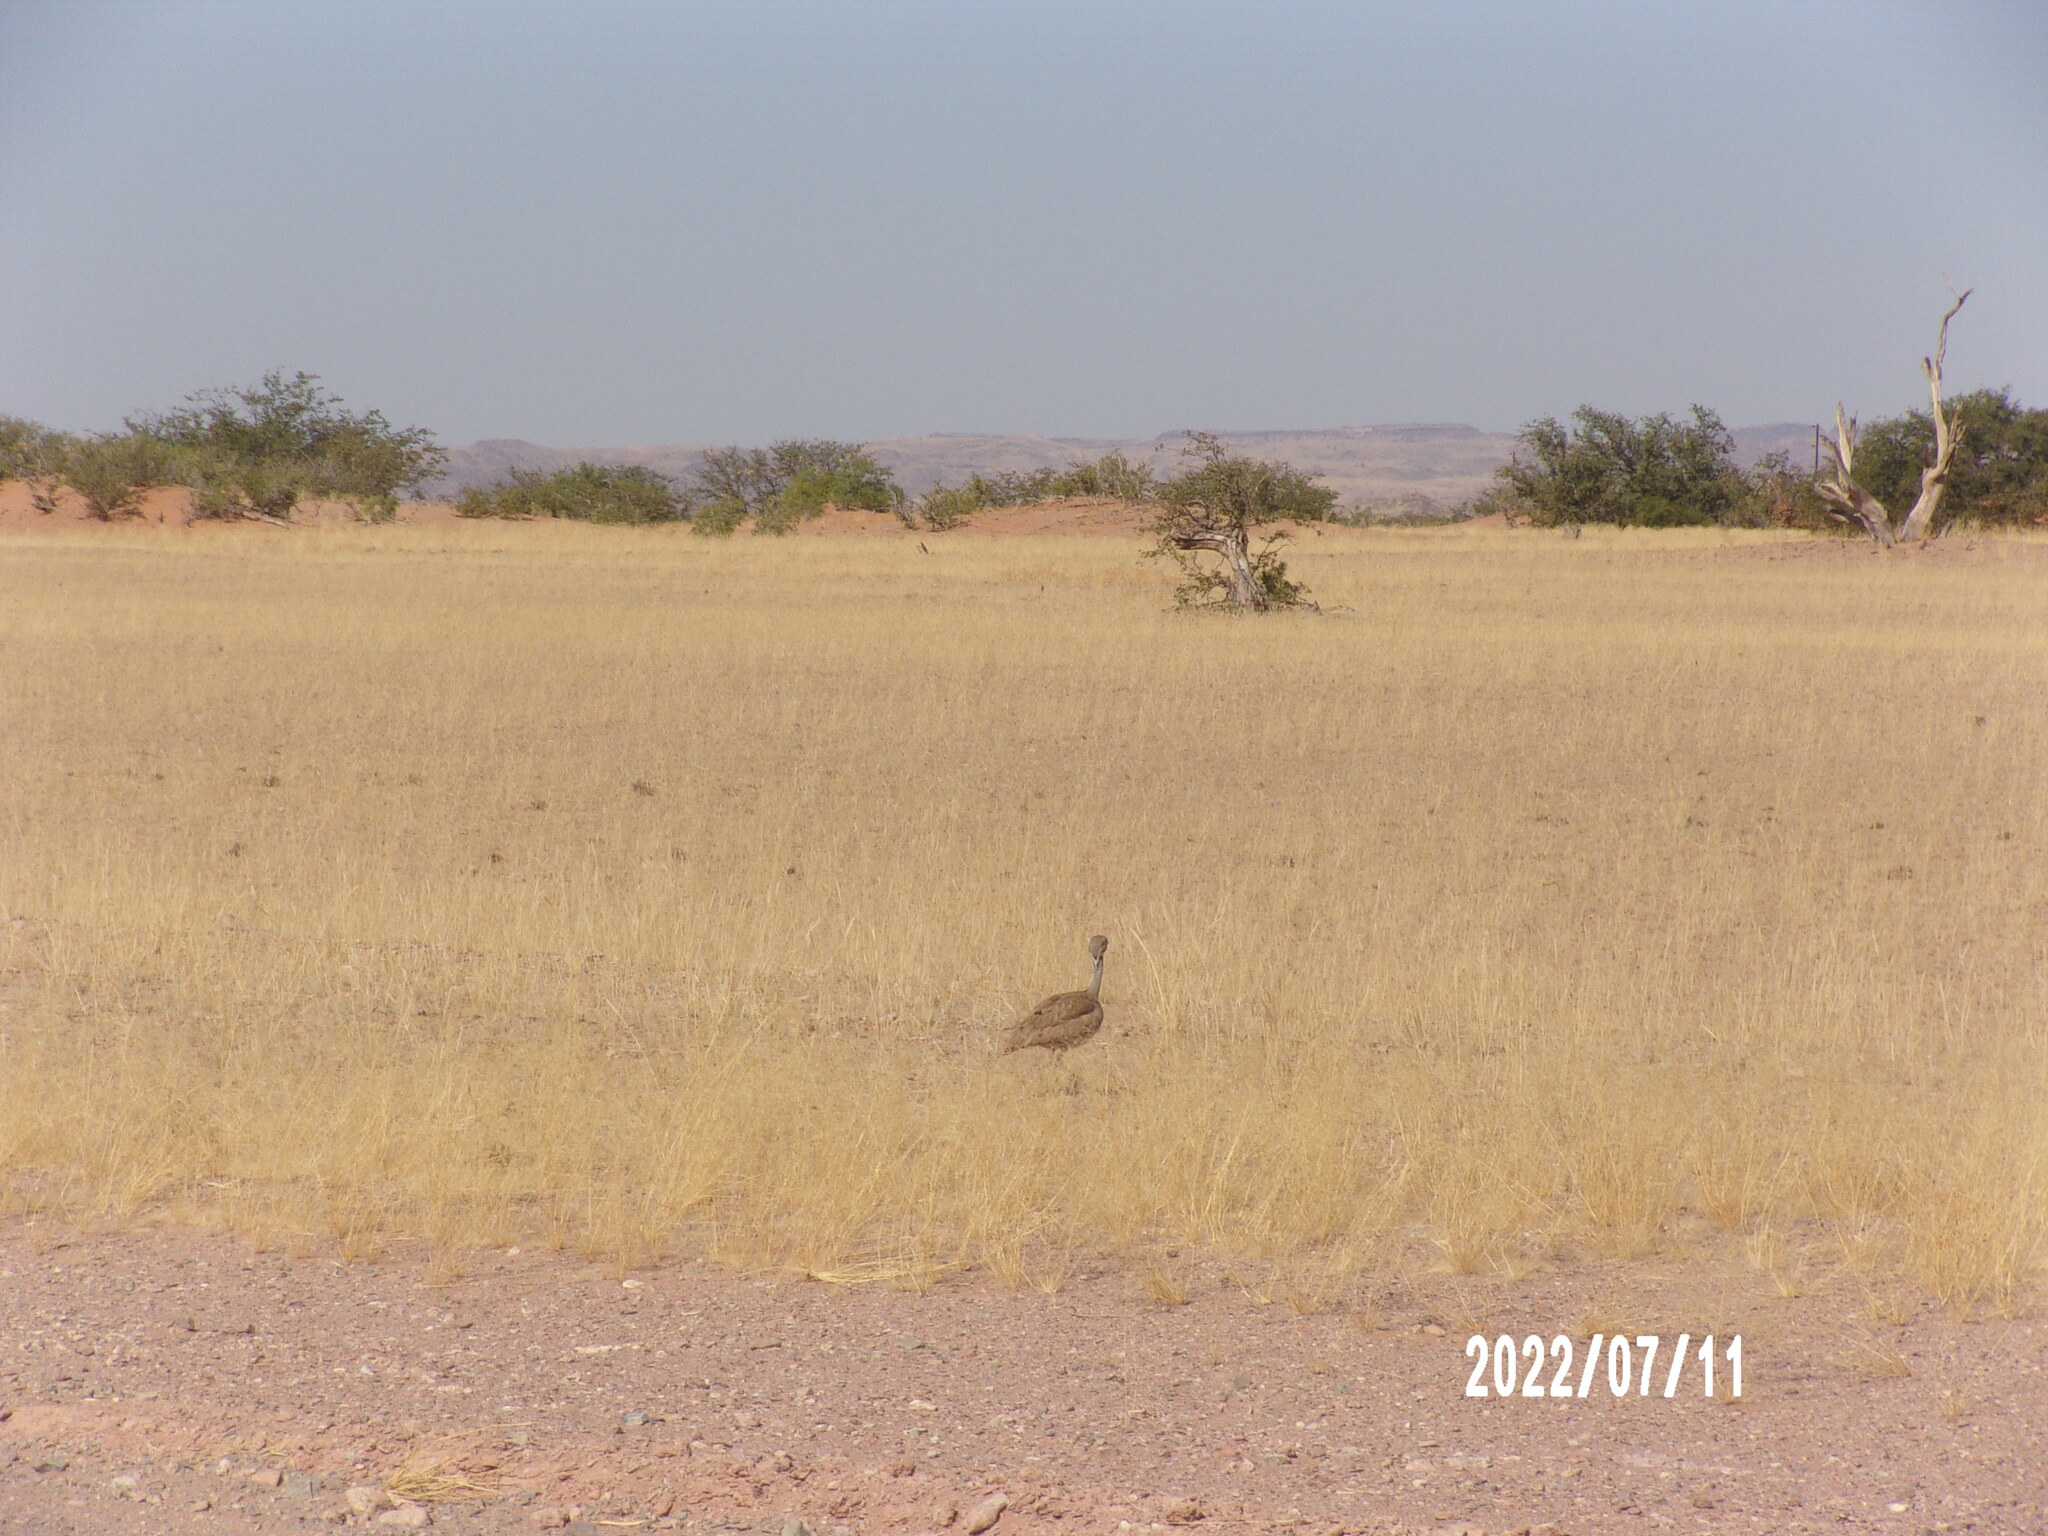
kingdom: Animalia
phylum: Chordata
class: Aves
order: Otidiformes
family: Otididae
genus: Heterotetrax
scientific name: Heterotetrax rueppelii
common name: Rüppell's korhaan
